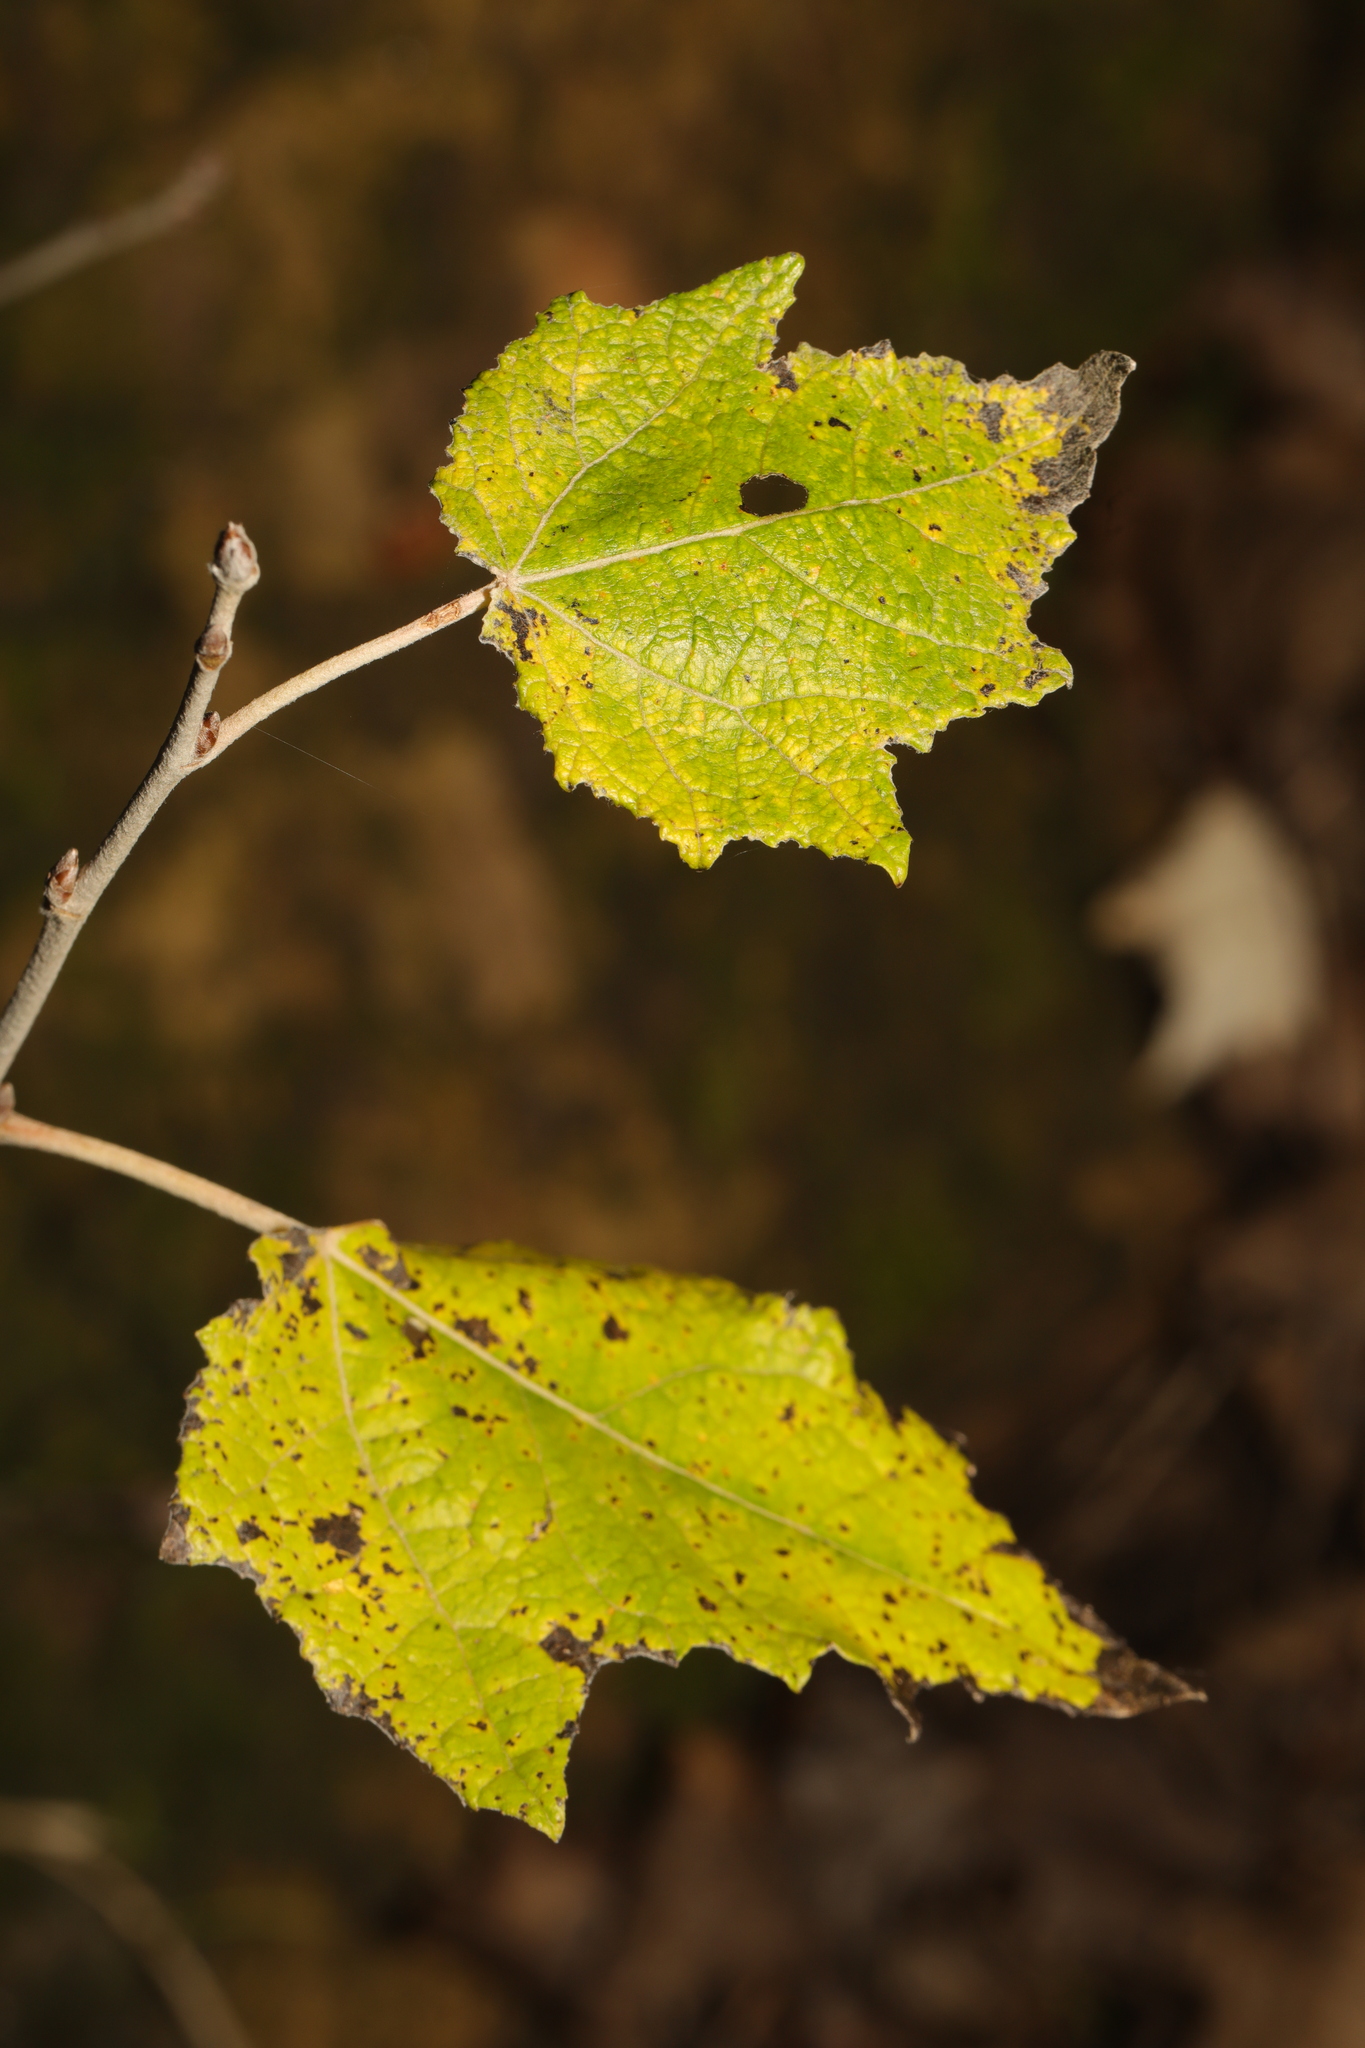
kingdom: Plantae
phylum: Tracheophyta
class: Magnoliopsida
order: Malpighiales
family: Salicaceae
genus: Populus
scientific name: Populus alba
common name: White poplar
